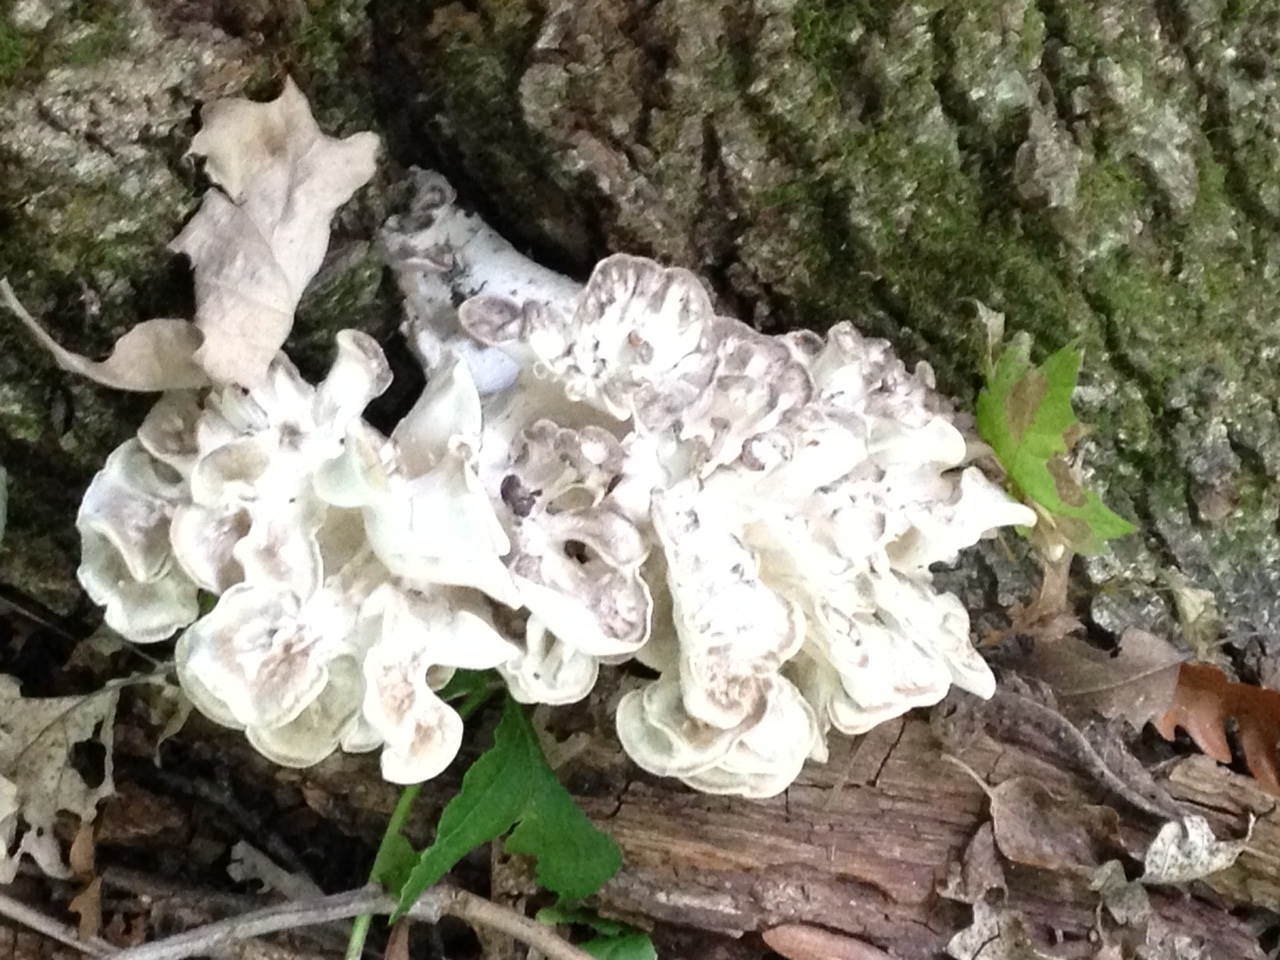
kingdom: Fungi
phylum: Basidiomycota
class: Agaricomycetes
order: Polyporales
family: Grifolaceae
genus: Grifola
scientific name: Grifola frondosa
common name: Hen of the woods
